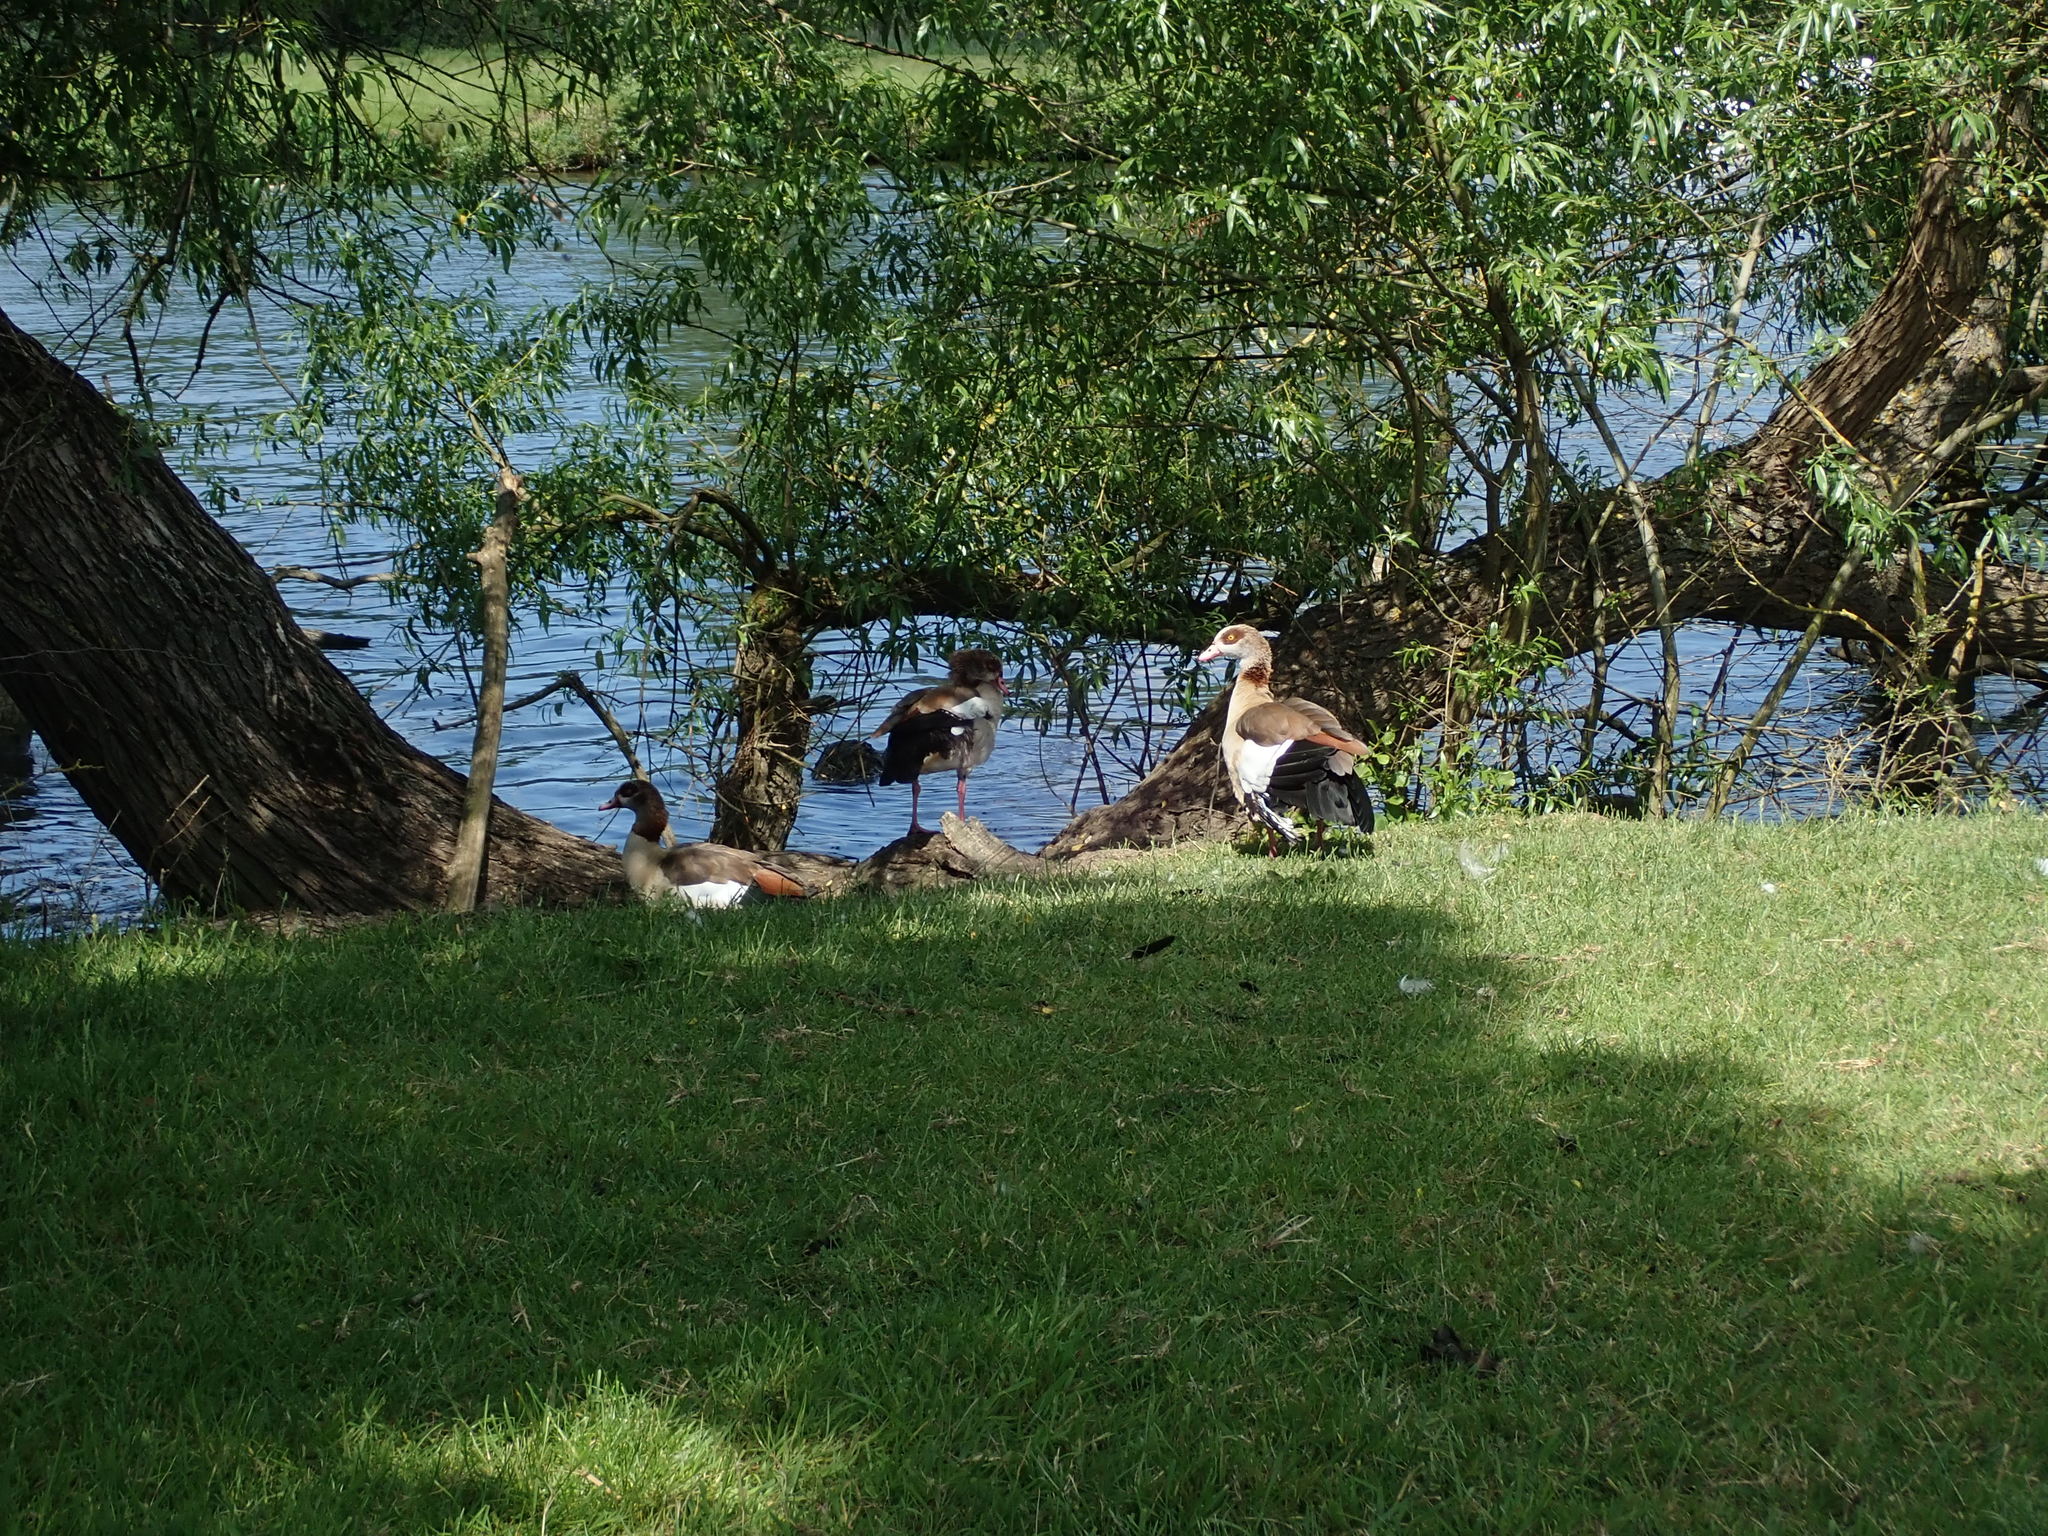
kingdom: Animalia
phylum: Chordata
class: Aves
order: Anseriformes
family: Anatidae
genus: Alopochen
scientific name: Alopochen aegyptiaca
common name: Egyptian goose
